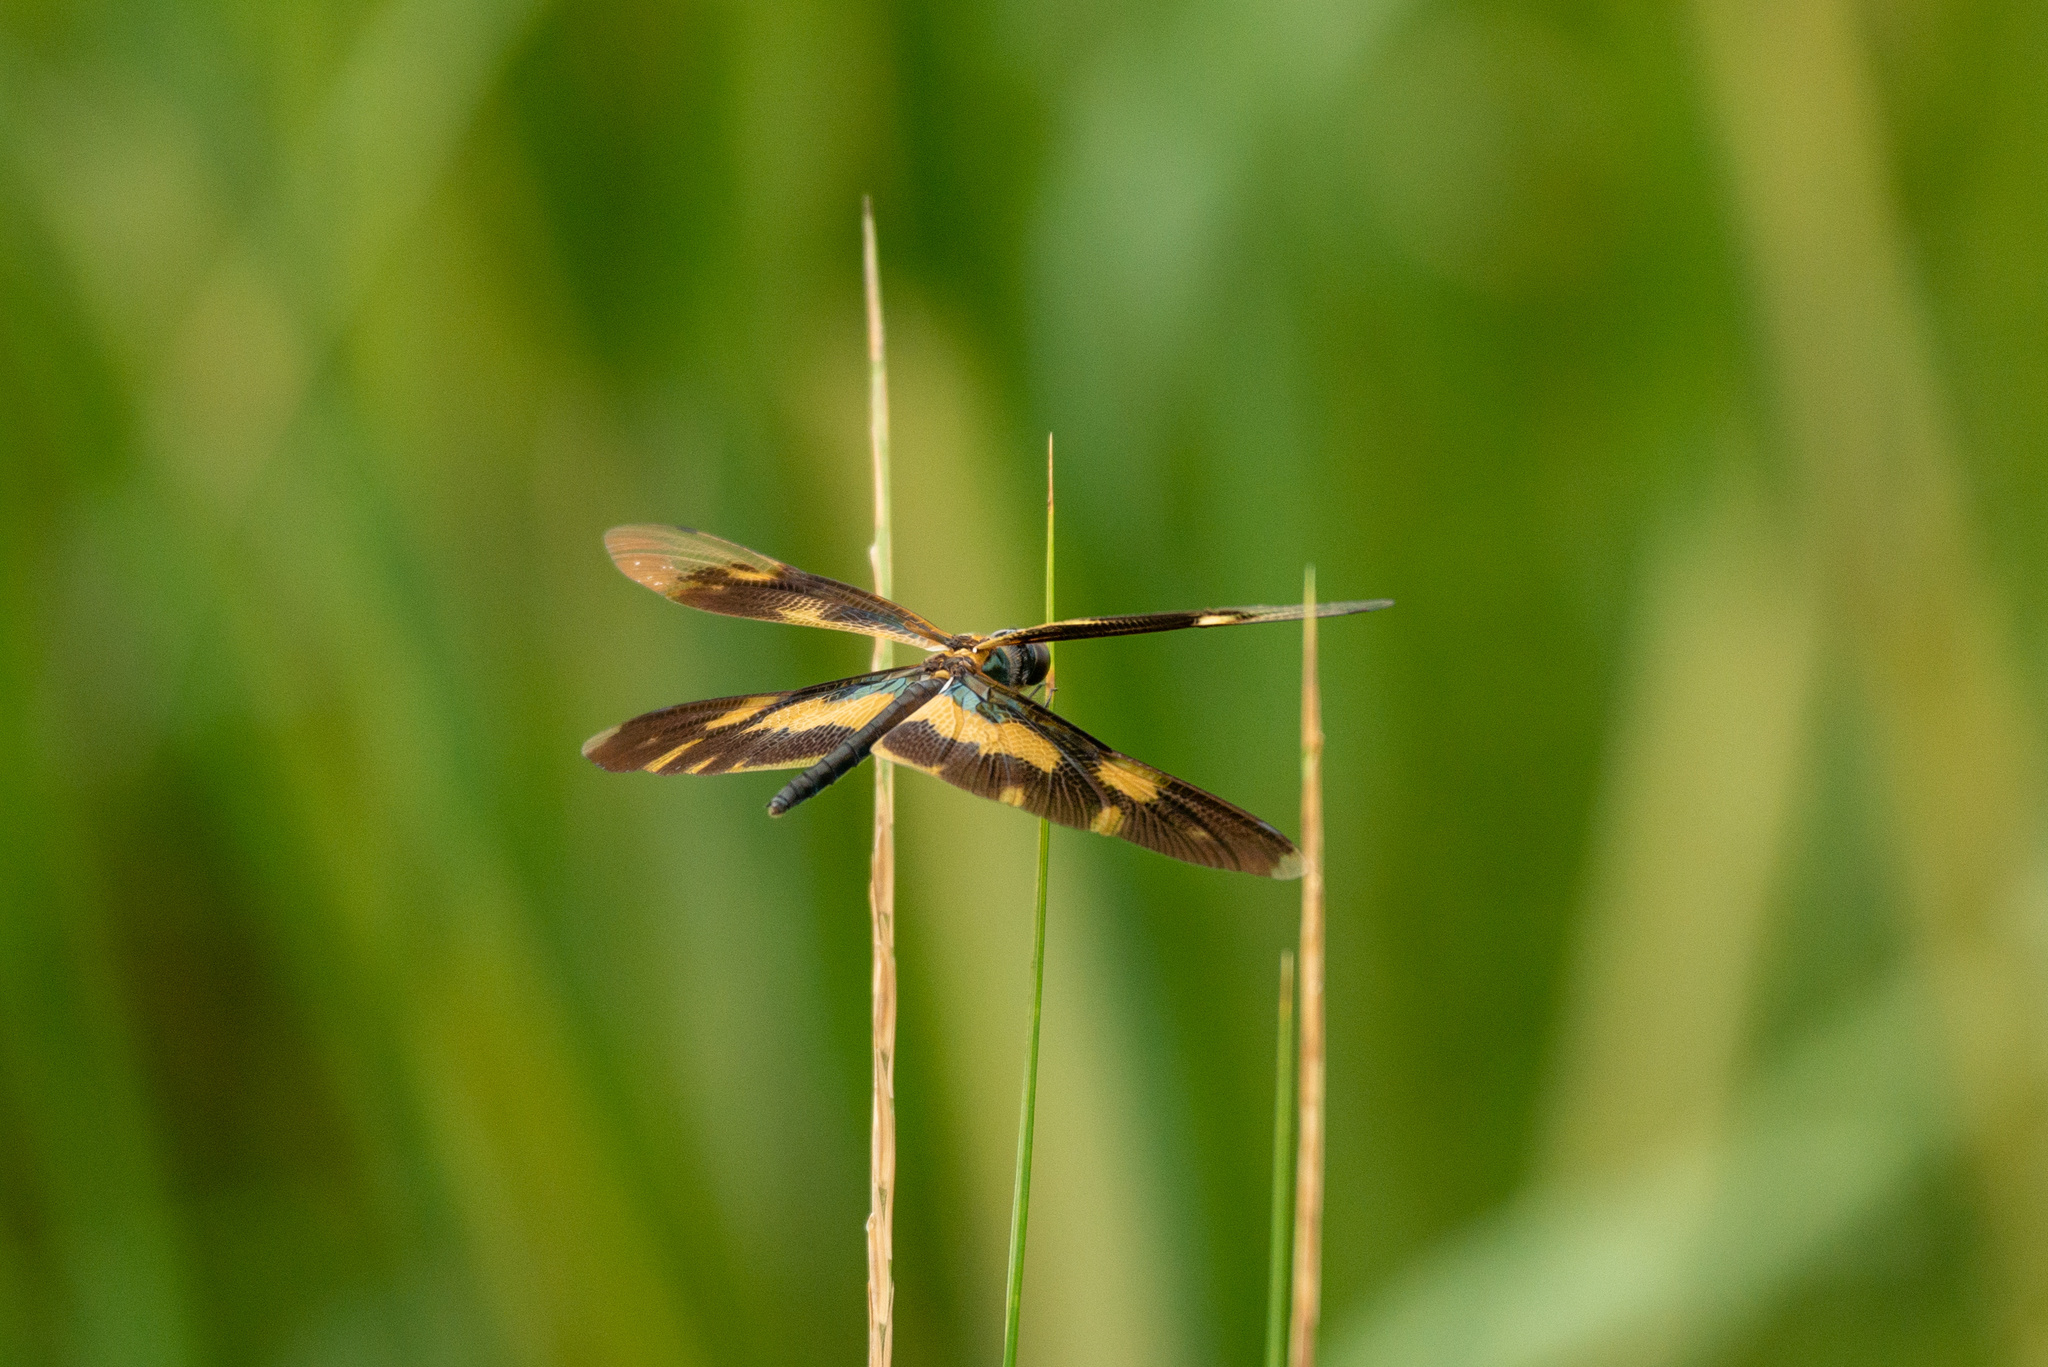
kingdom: Animalia
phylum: Arthropoda
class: Insecta
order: Odonata
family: Libellulidae
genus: Rhyothemis
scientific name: Rhyothemis variegata
